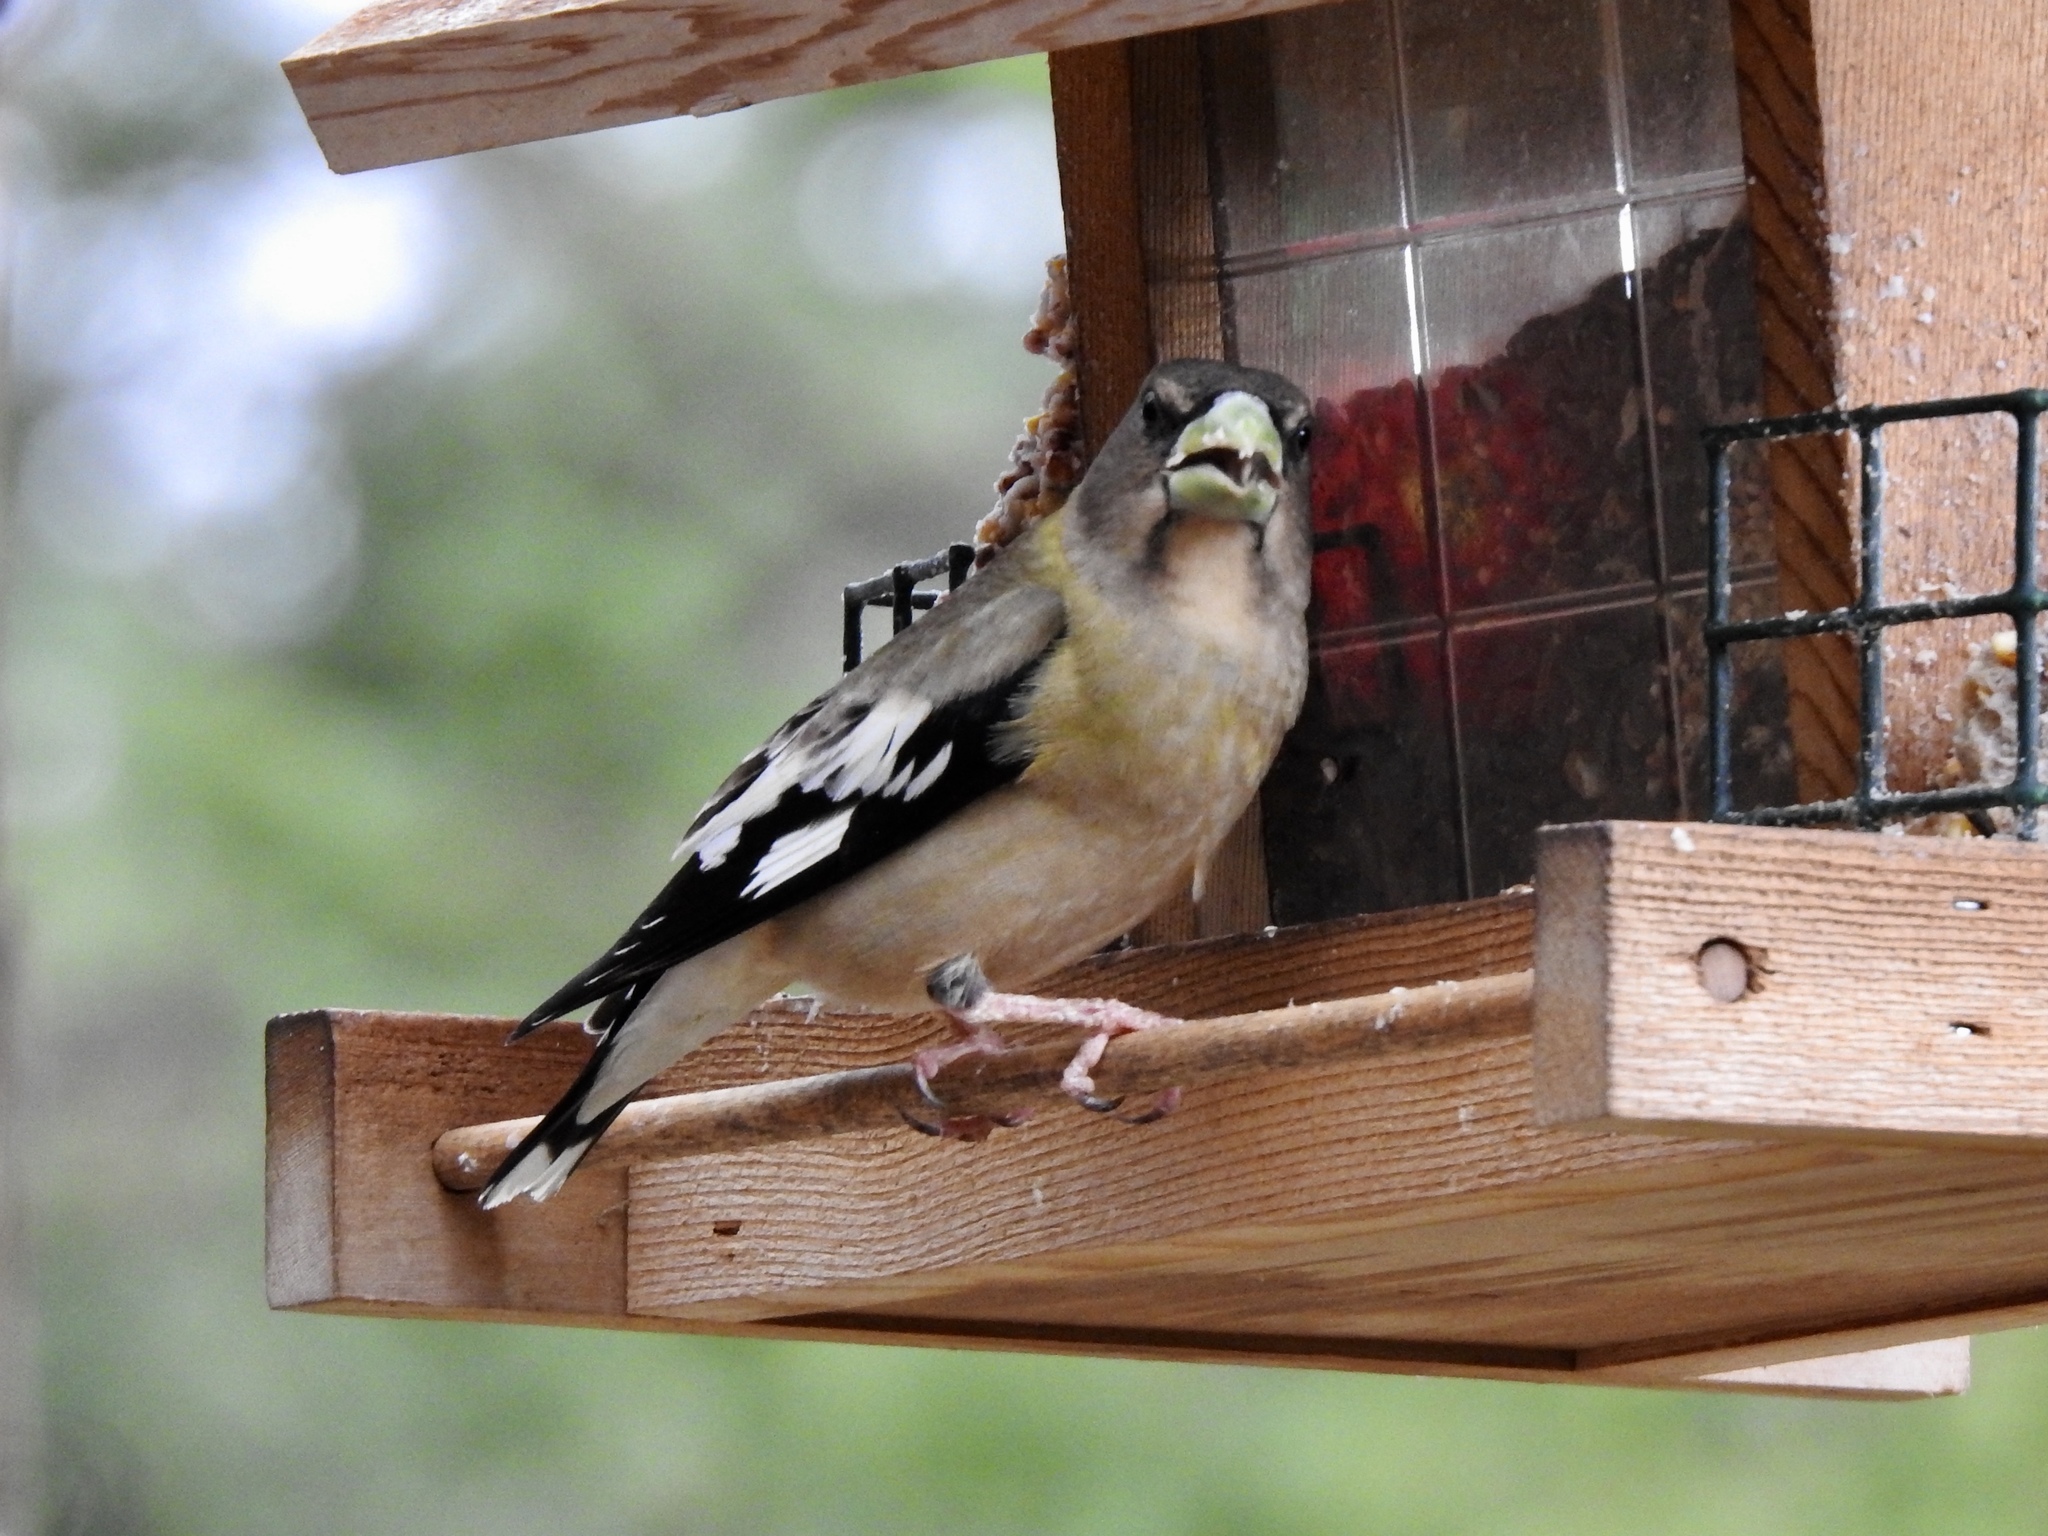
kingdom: Animalia
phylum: Chordata
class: Aves
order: Passeriformes
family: Fringillidae
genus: Hesperiphona
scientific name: Hesperiphona vespertina
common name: Evening grosbeak
